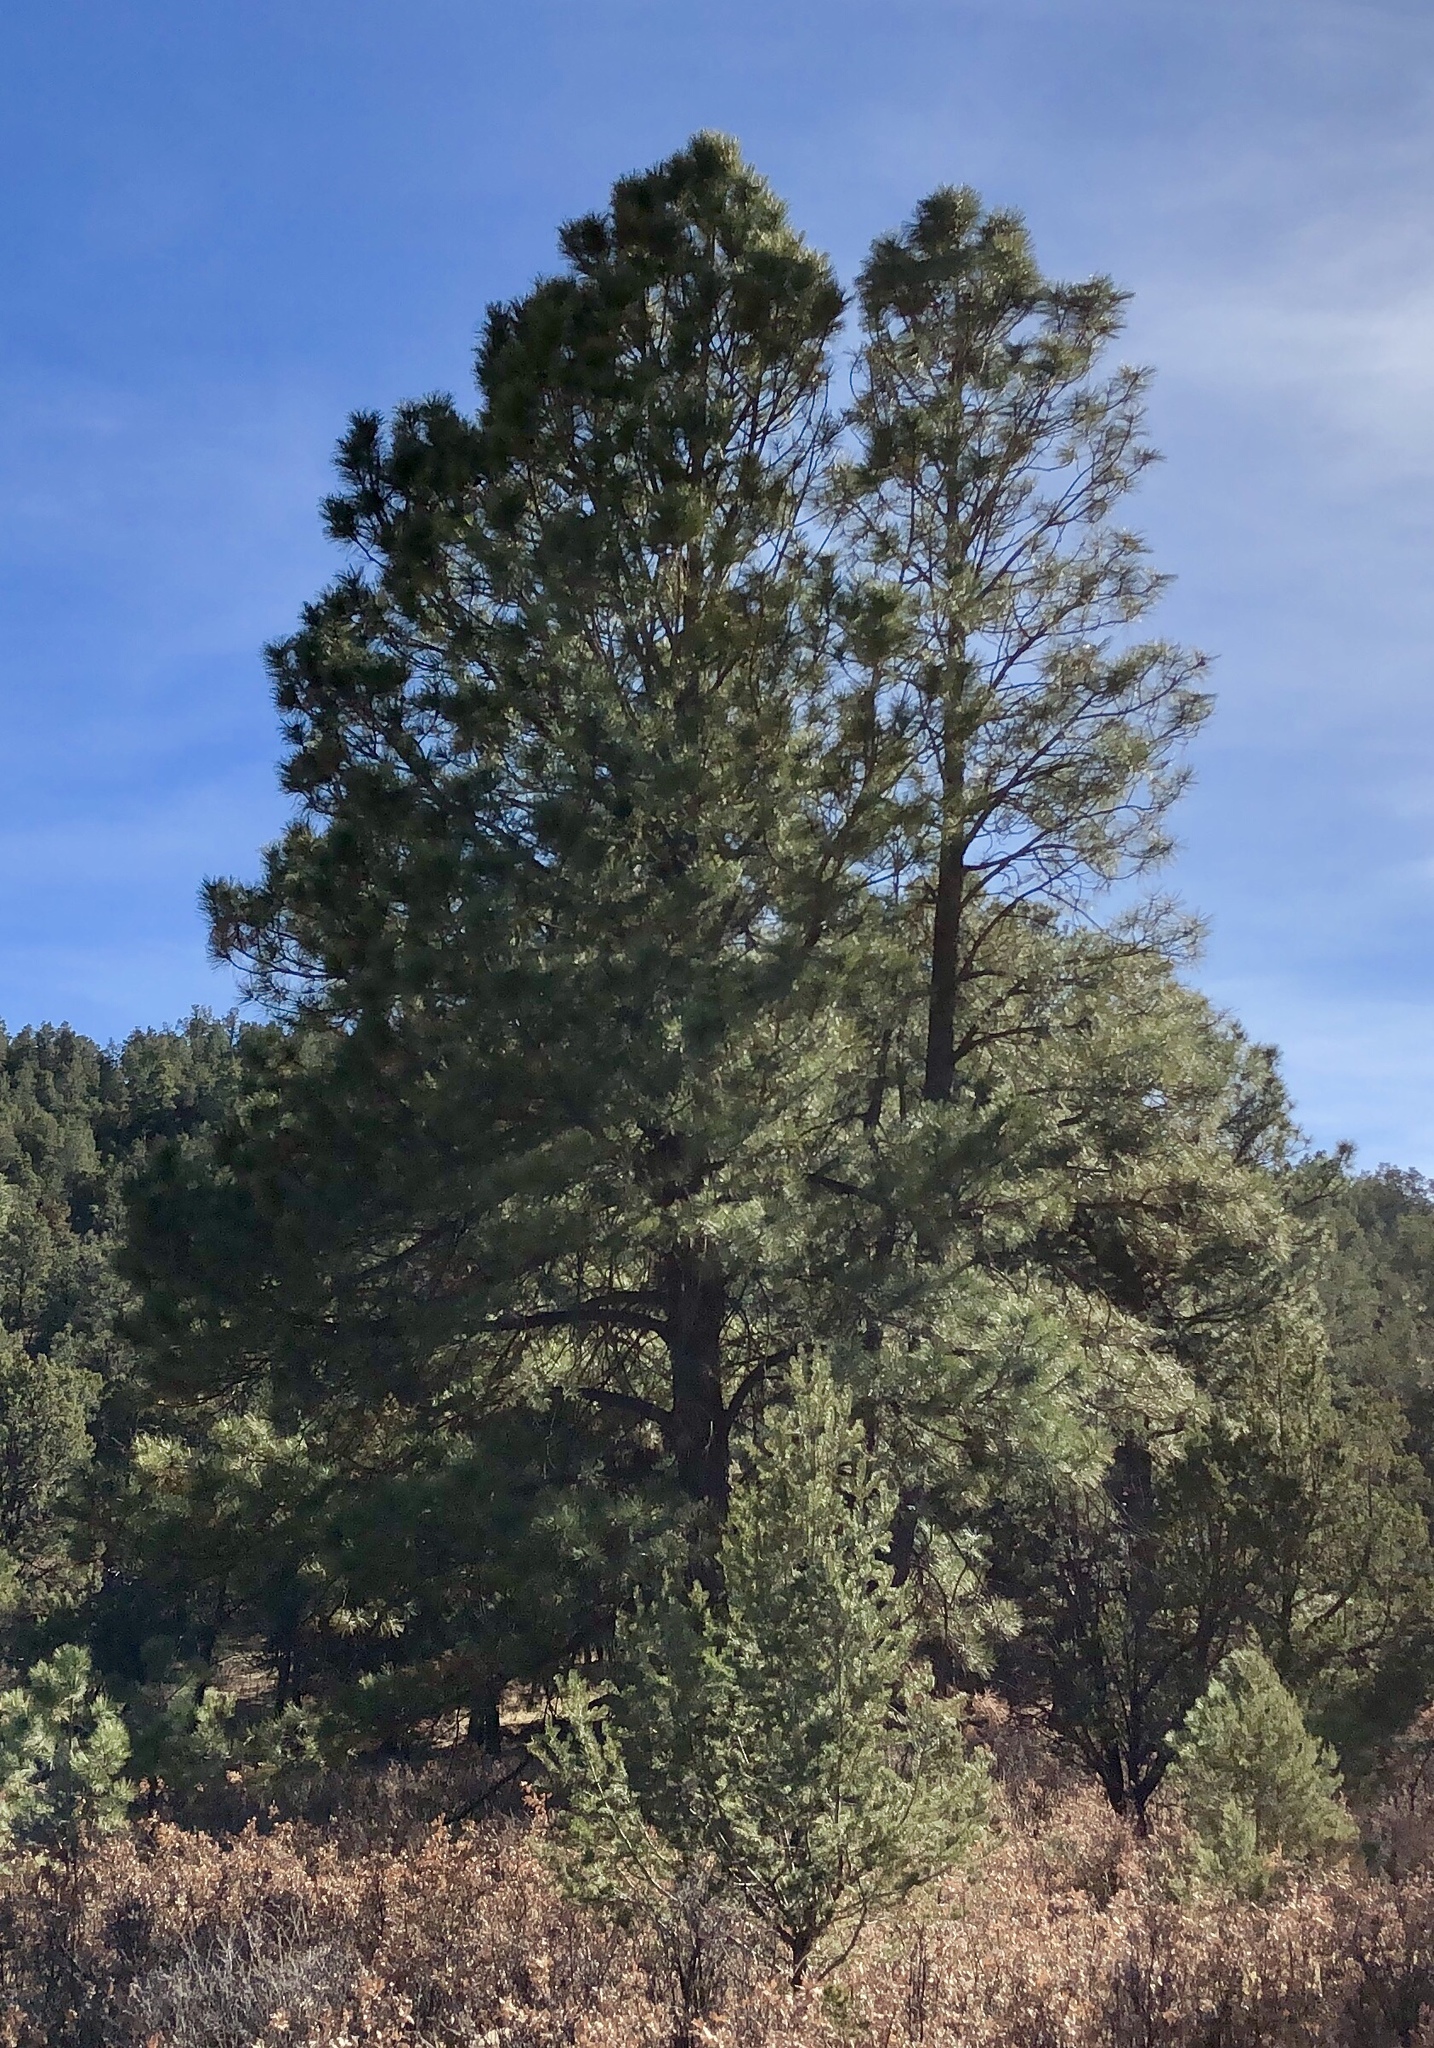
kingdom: Plantae
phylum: Tracheophyta
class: Pinopsida
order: Pinales
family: Pinaceae
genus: Pinus
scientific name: Pinus ponderosa
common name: Western yellow-pine
